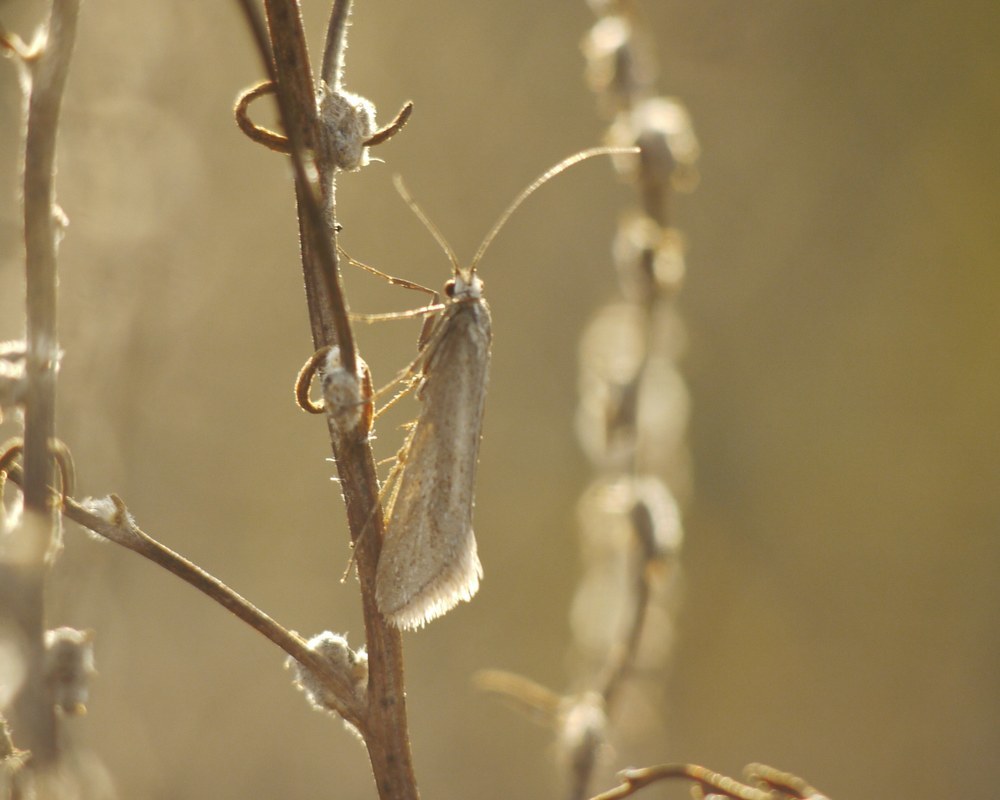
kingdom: Animalia
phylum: Arthropoda
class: Insecta
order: Lepidoptera
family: Eriocottidae
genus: Deuterotinea
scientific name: Deuterotinea casanella
